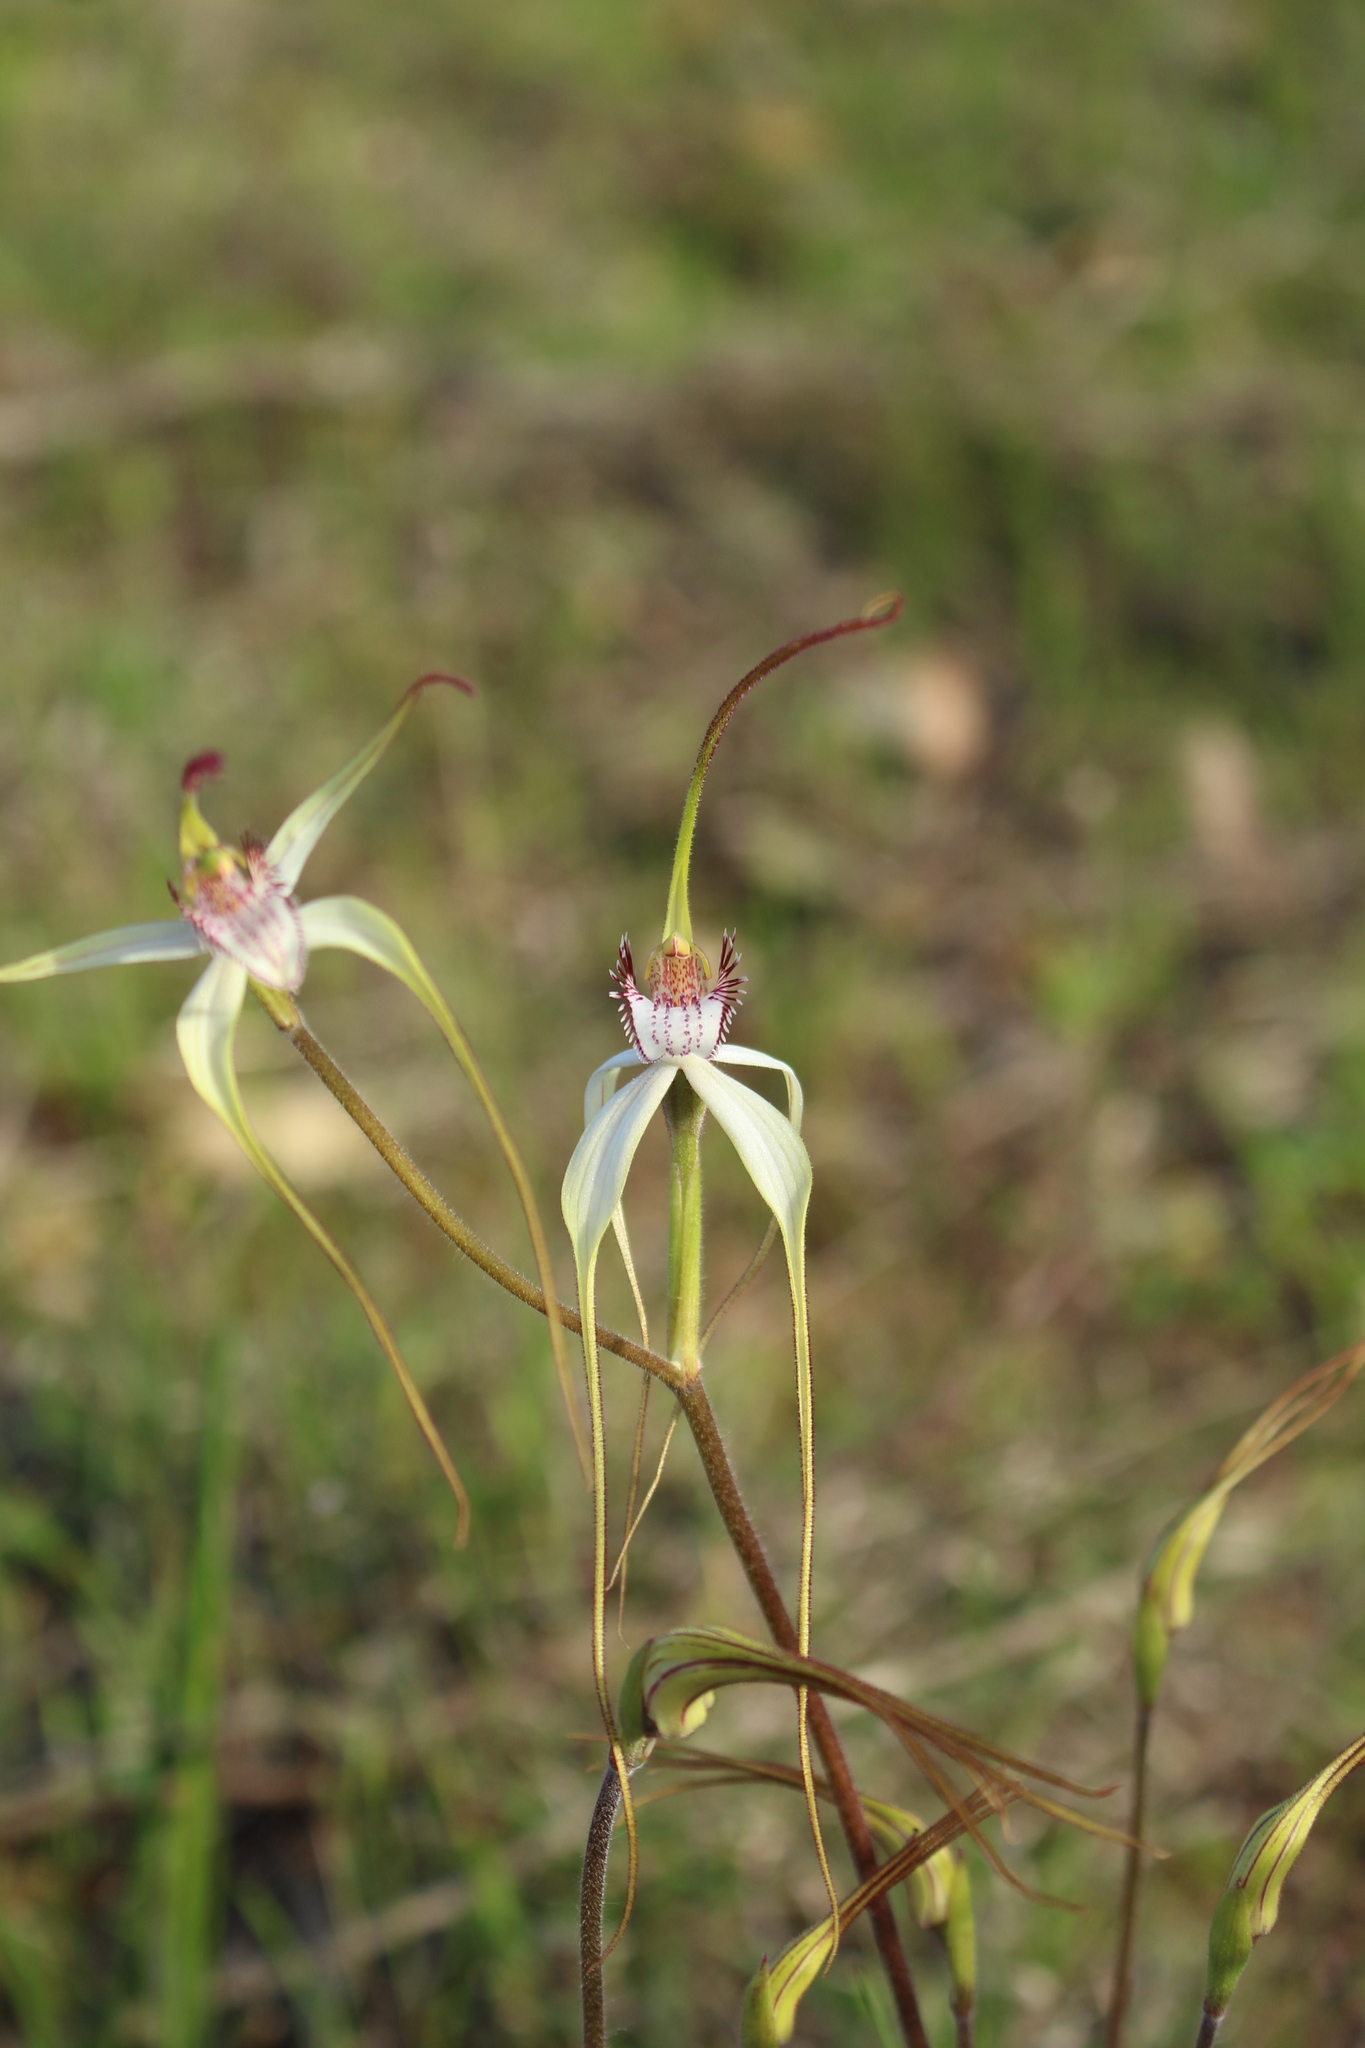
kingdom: Plantae
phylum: Tracheophyta
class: Liliopsida
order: Asparagales
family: Orchidaceae
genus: Caladenia
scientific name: Caladenia longicauda
